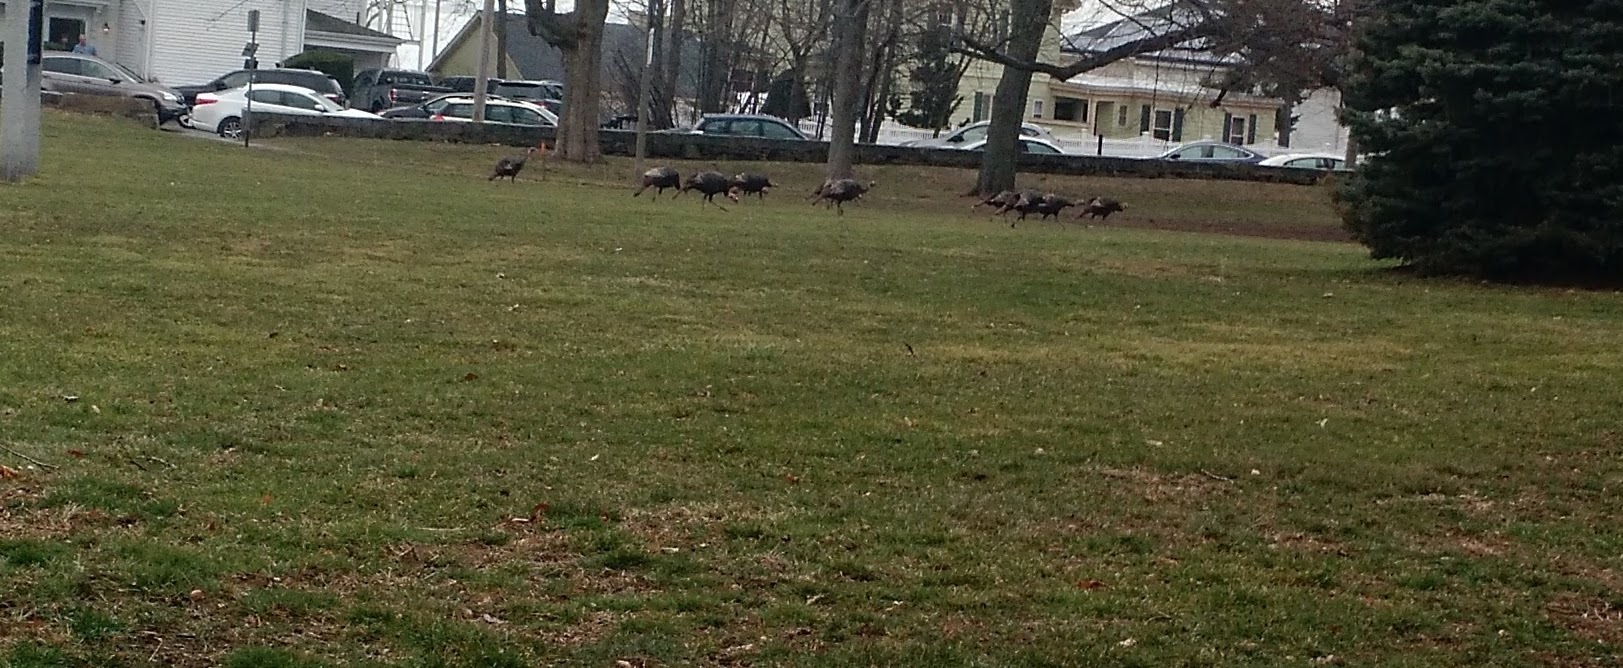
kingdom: Animalia
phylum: Chordata
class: Aves
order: Galliformes
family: Phasianidae
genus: Meleagris
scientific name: Meleagris gallopavo
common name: Wild turkey
